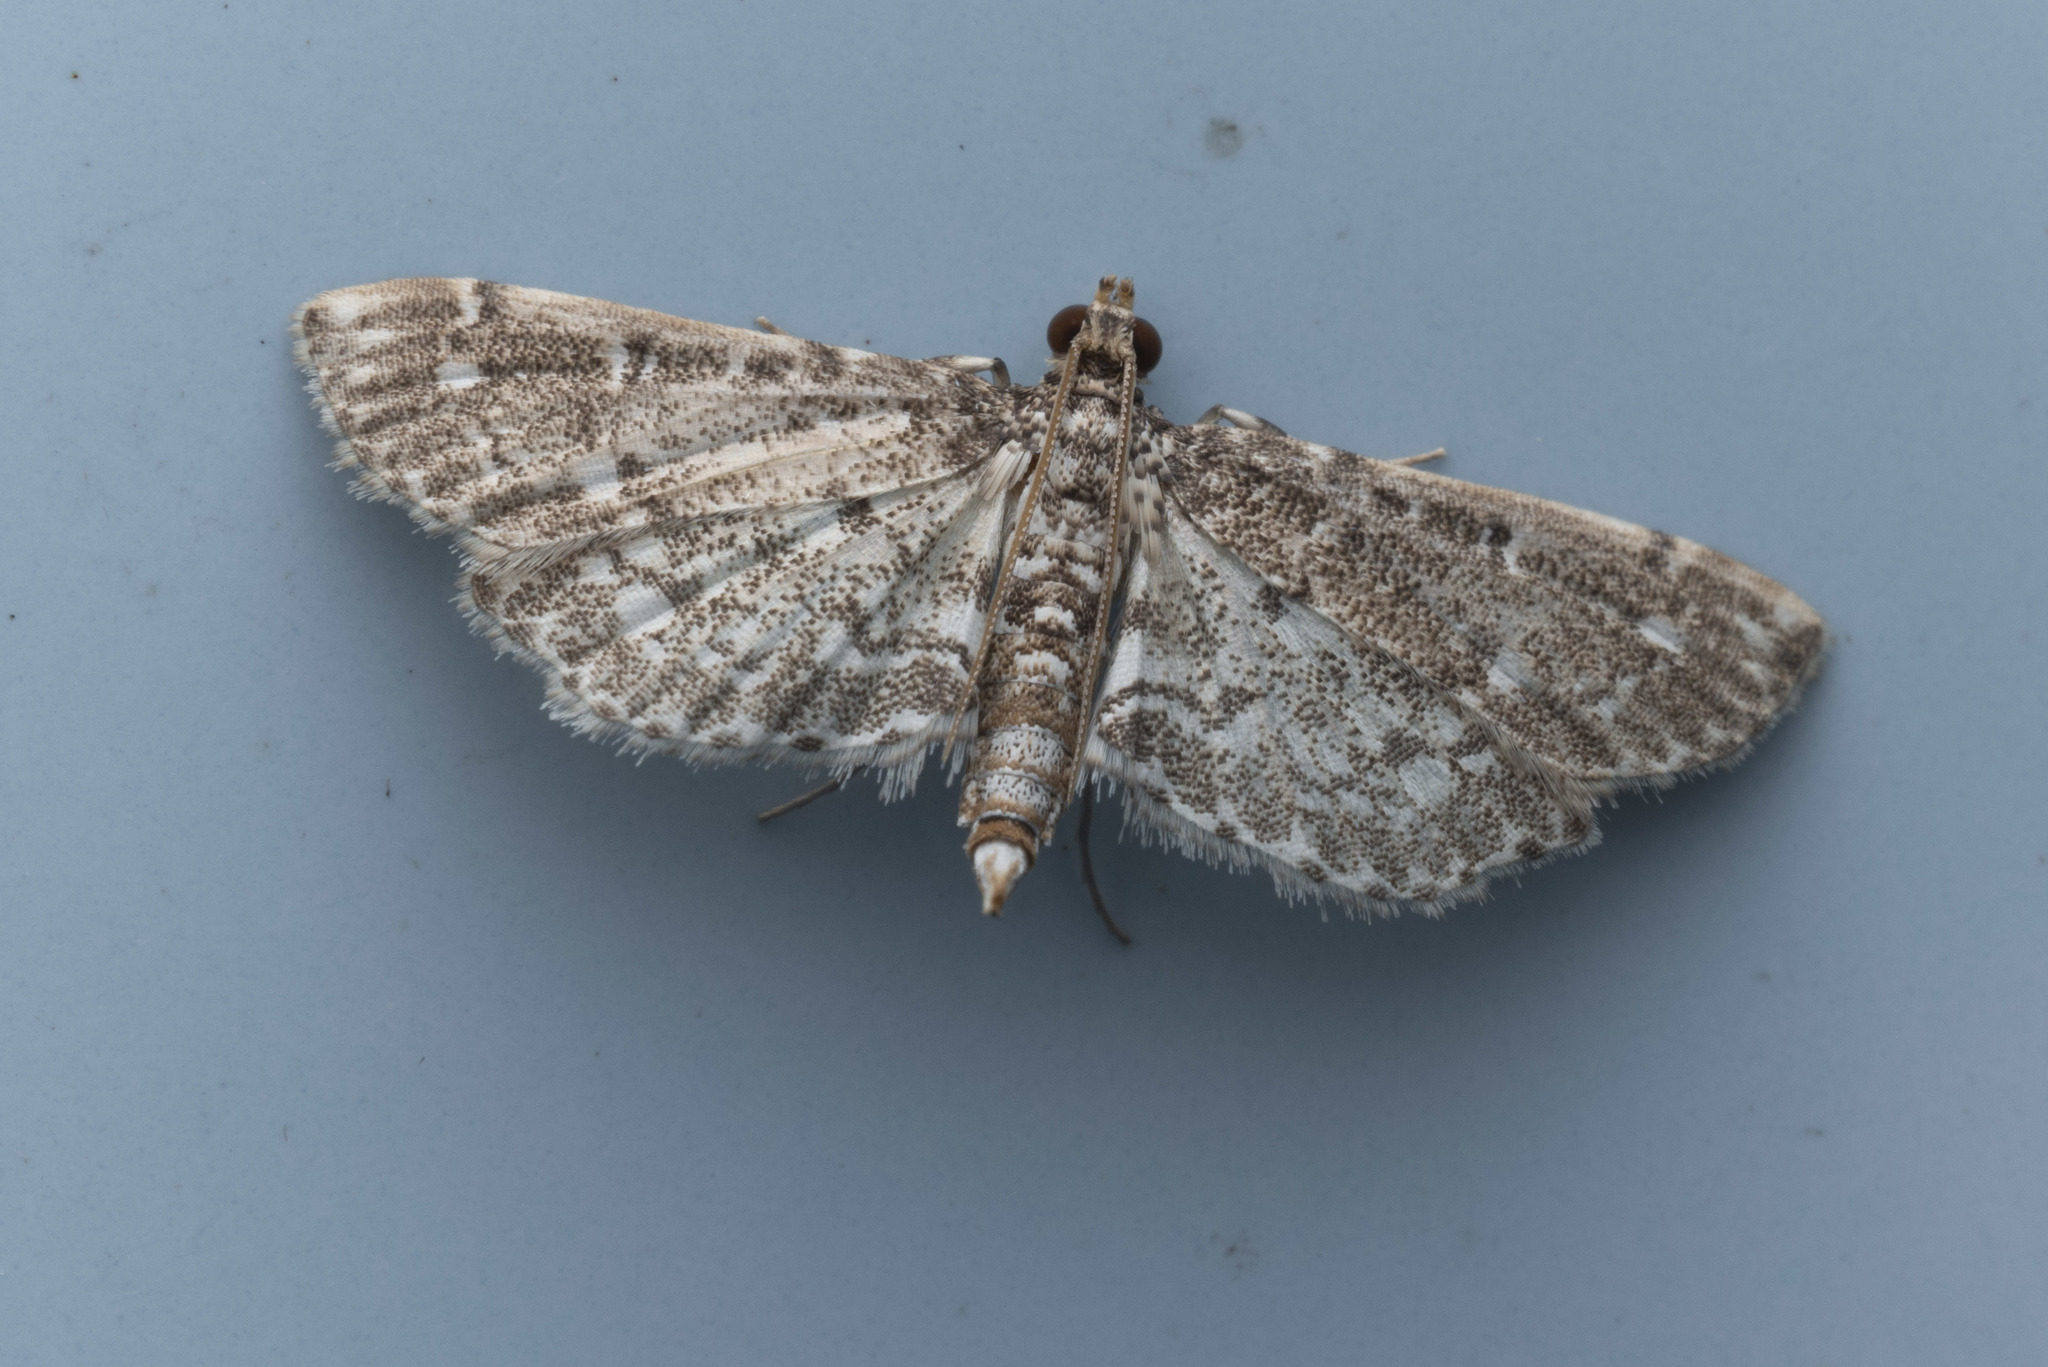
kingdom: Animalia
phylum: Arthropoda
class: Insecta
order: Lepidoptera
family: Crambidae
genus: Eurrhyparodes
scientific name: Eurrhyparodes nymphulalis
